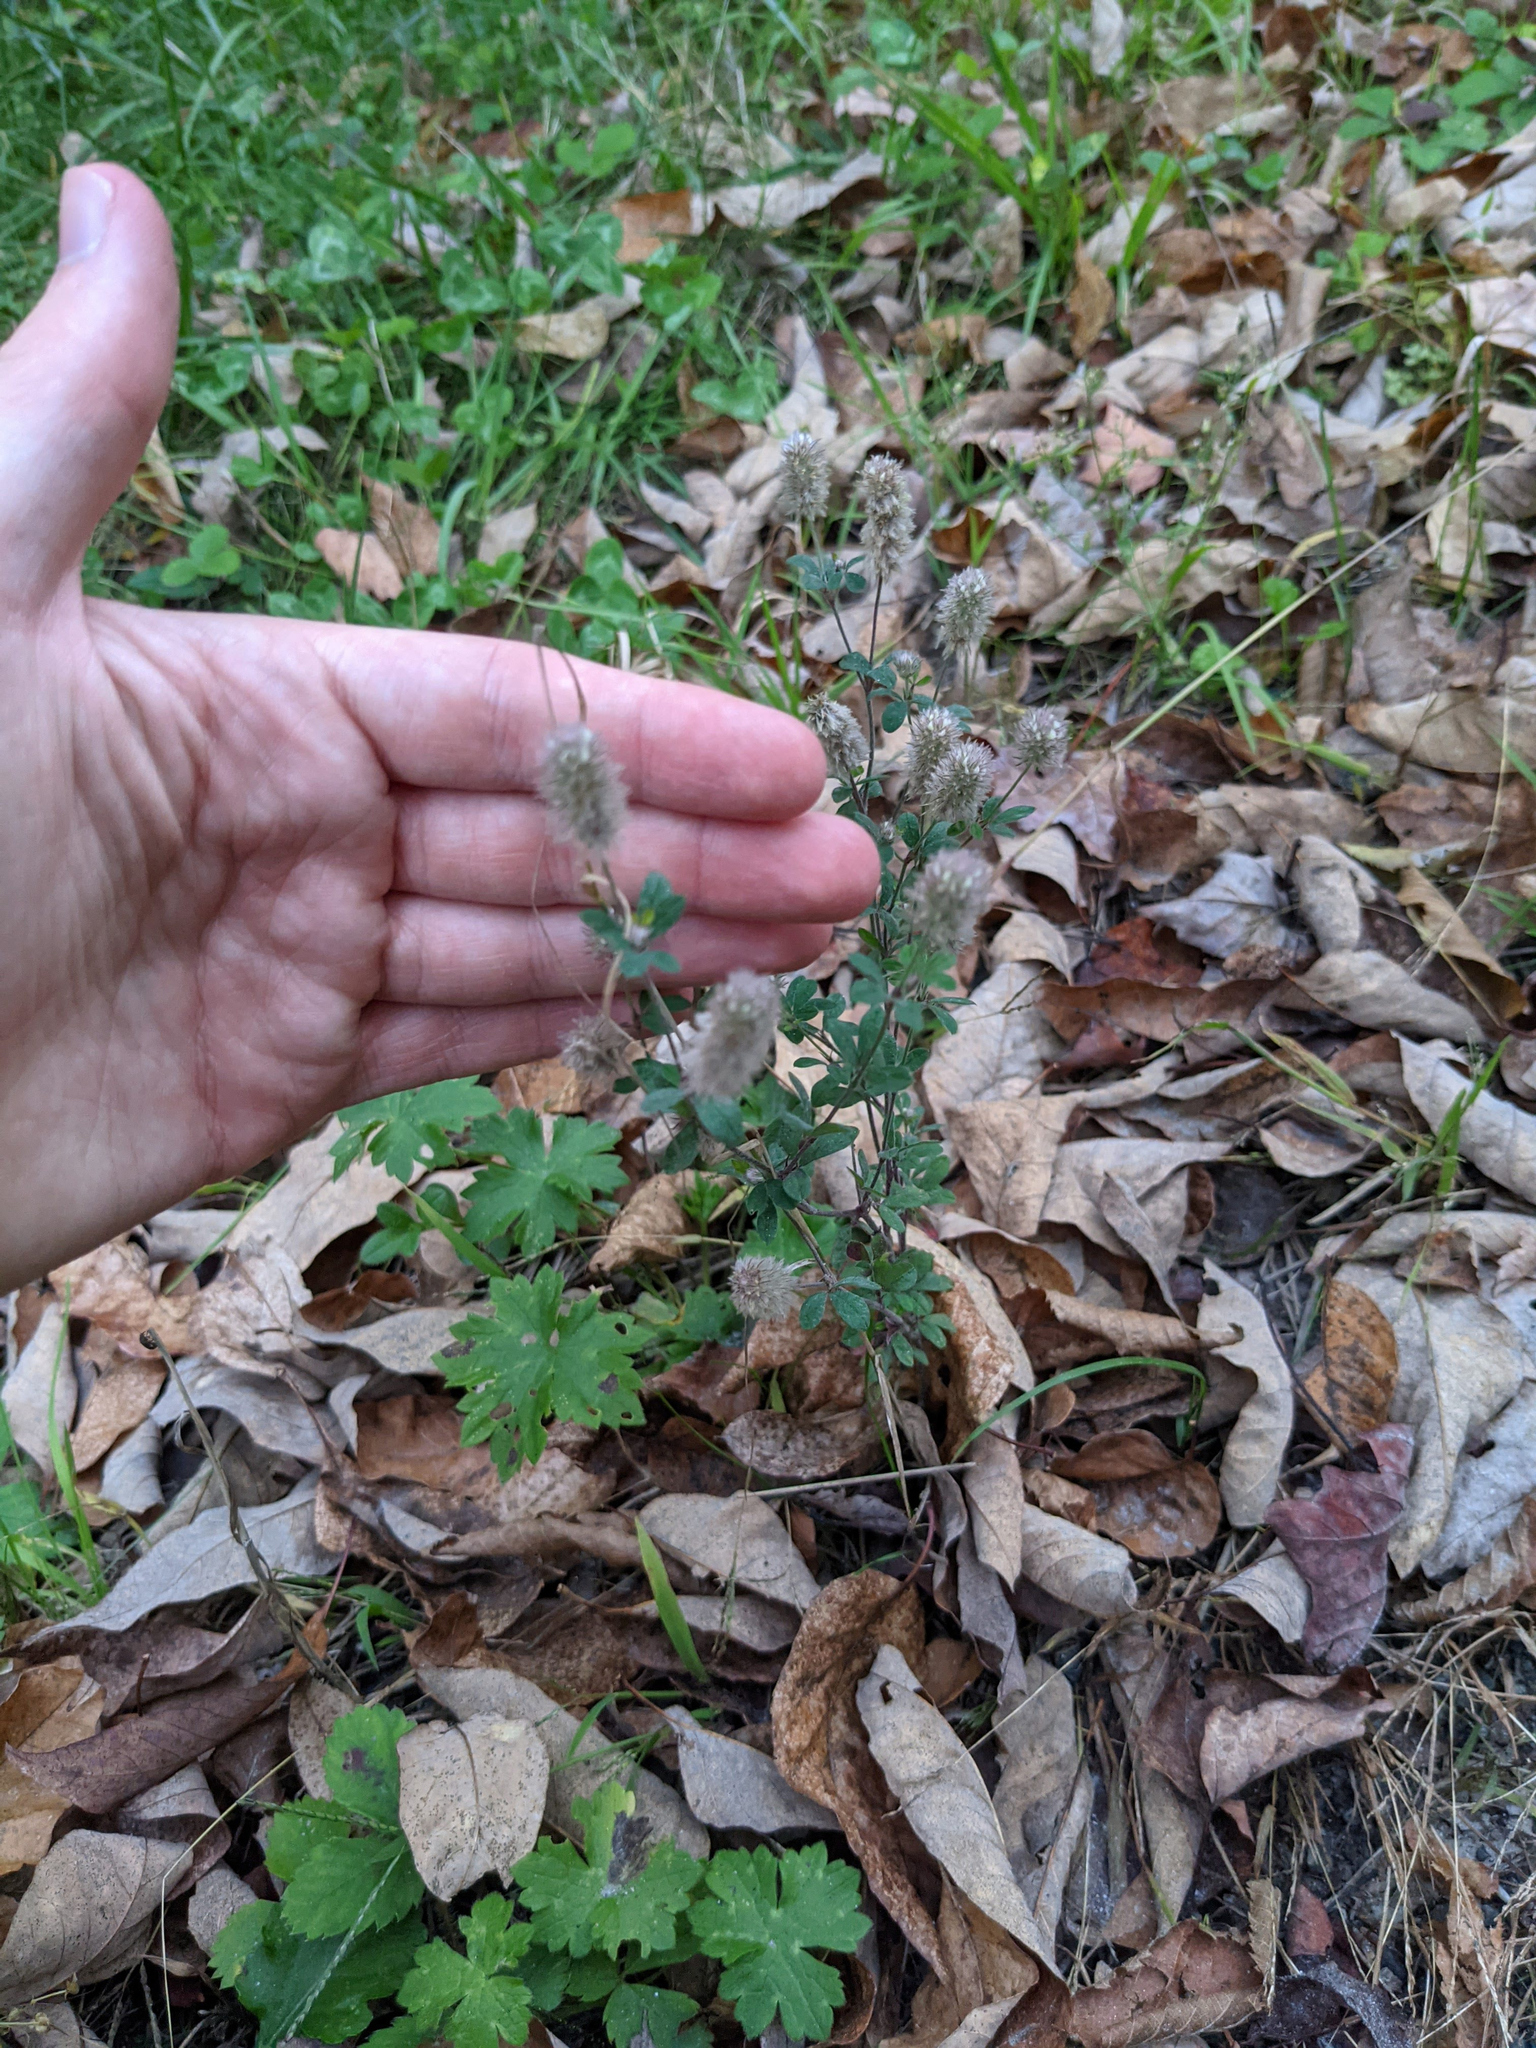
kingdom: Plantae
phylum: Tracheophyta
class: Magnoliopsida
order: Fabales
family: Fabaceae
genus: Trifolium
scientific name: Trifolium arvense
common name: Hare's-foot clover
